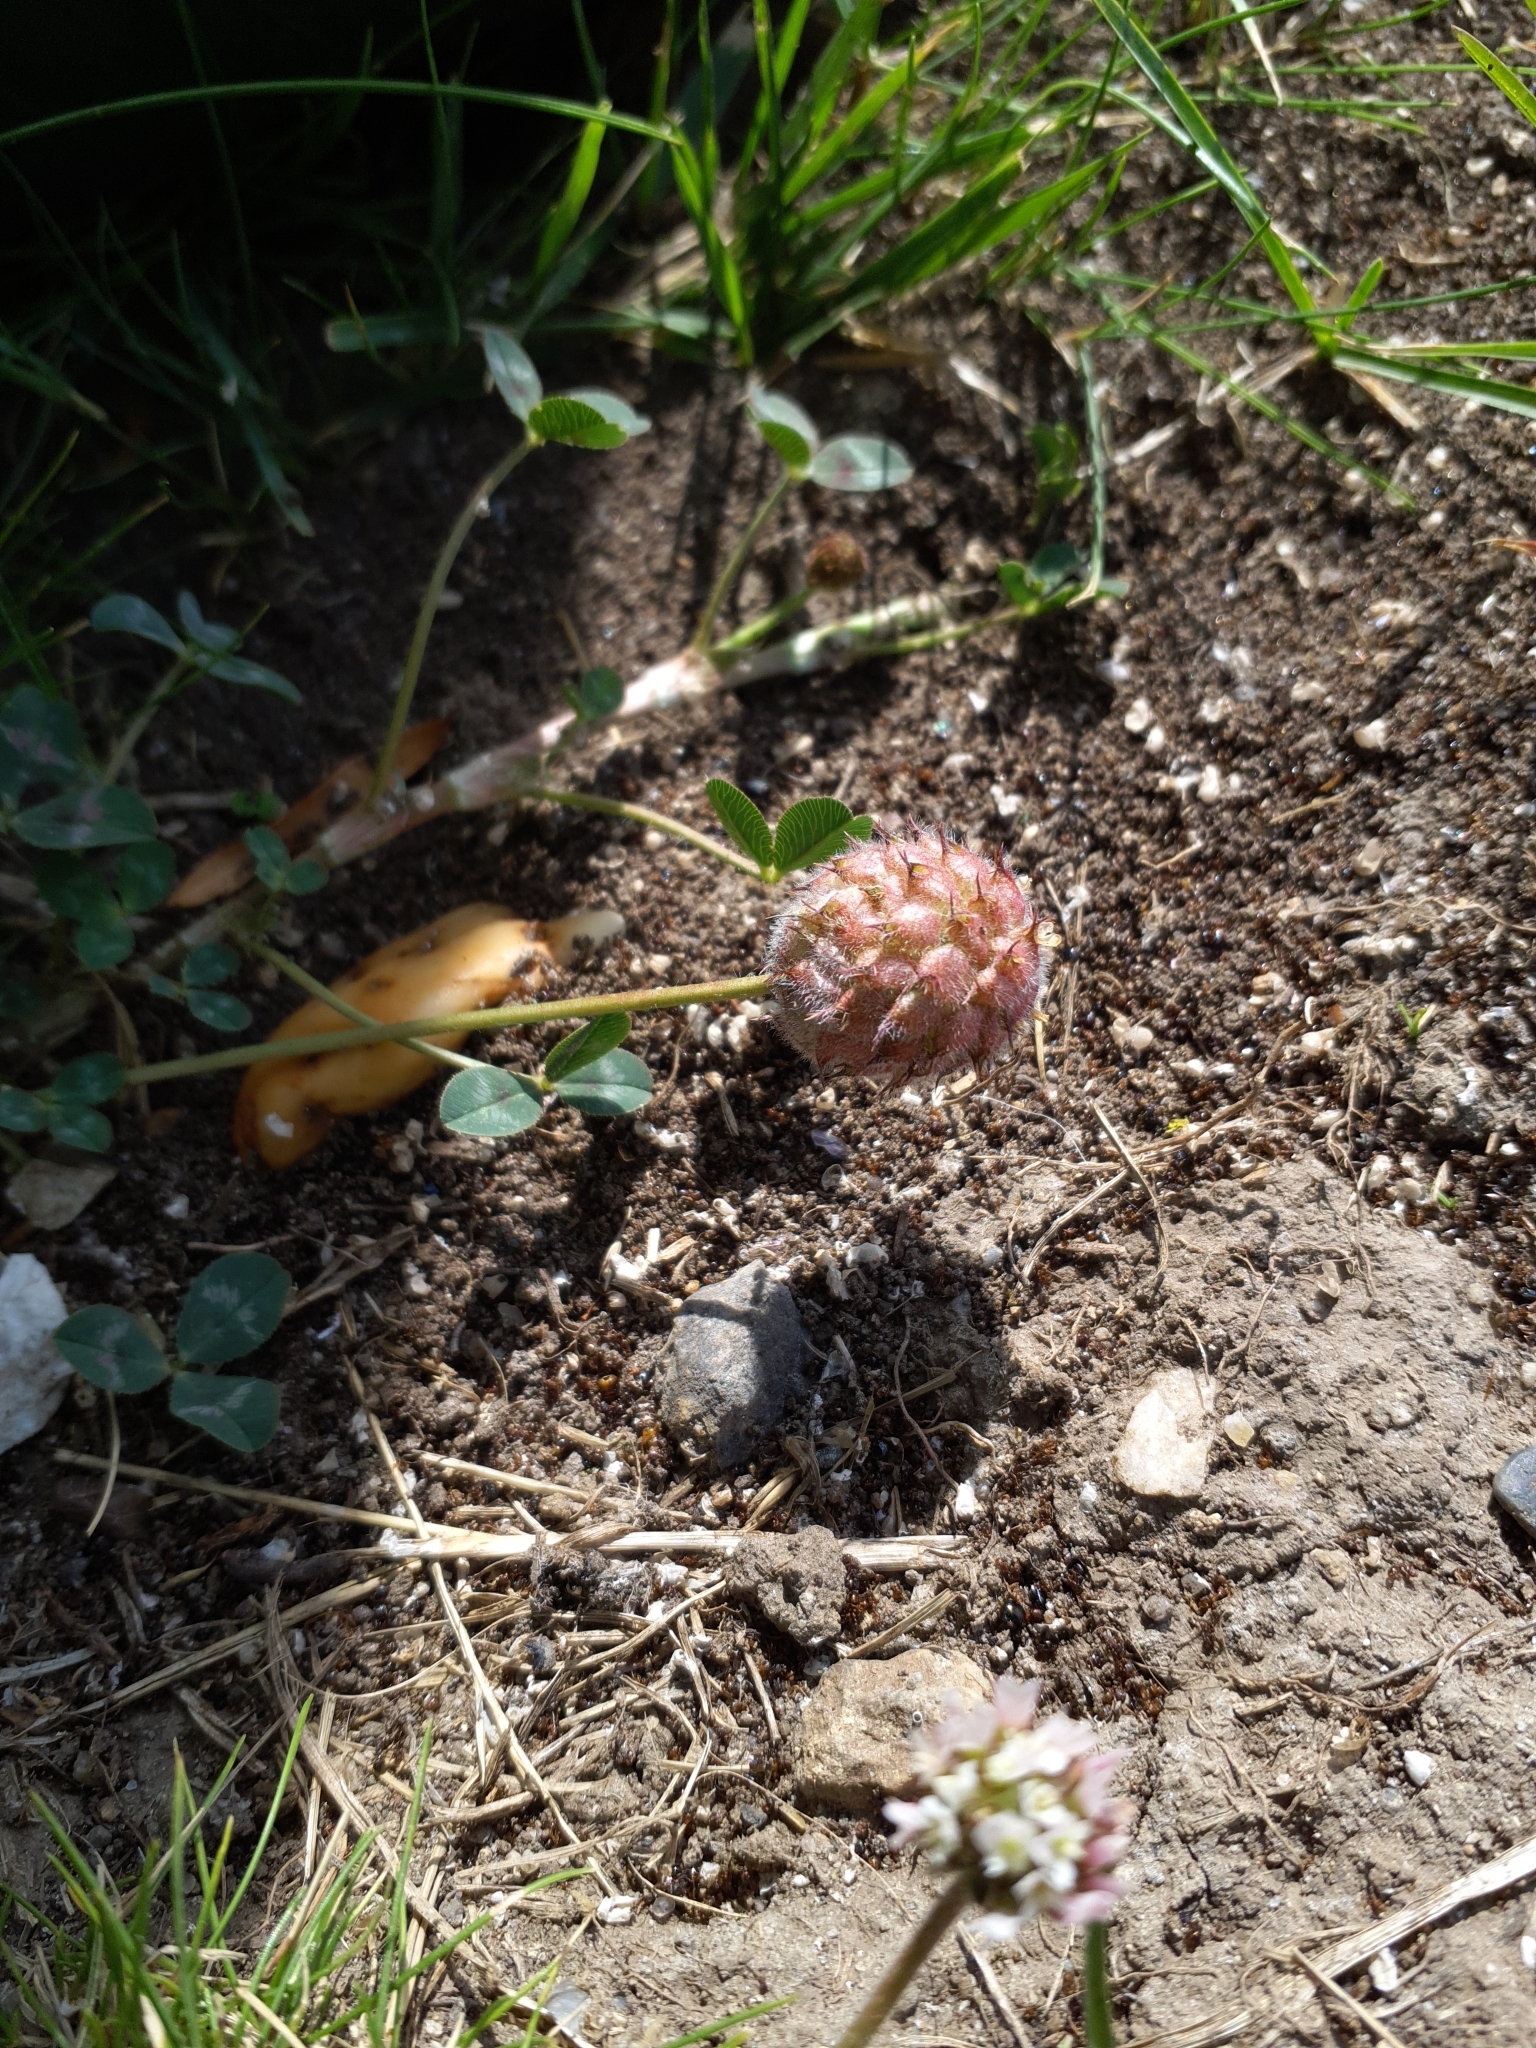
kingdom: Plantae
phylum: Tracheophyta
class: Magnoliopsida
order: Fabales
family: Fabaceae
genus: Trifolium
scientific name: Trifolium fragiferum
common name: Strawberry clover
